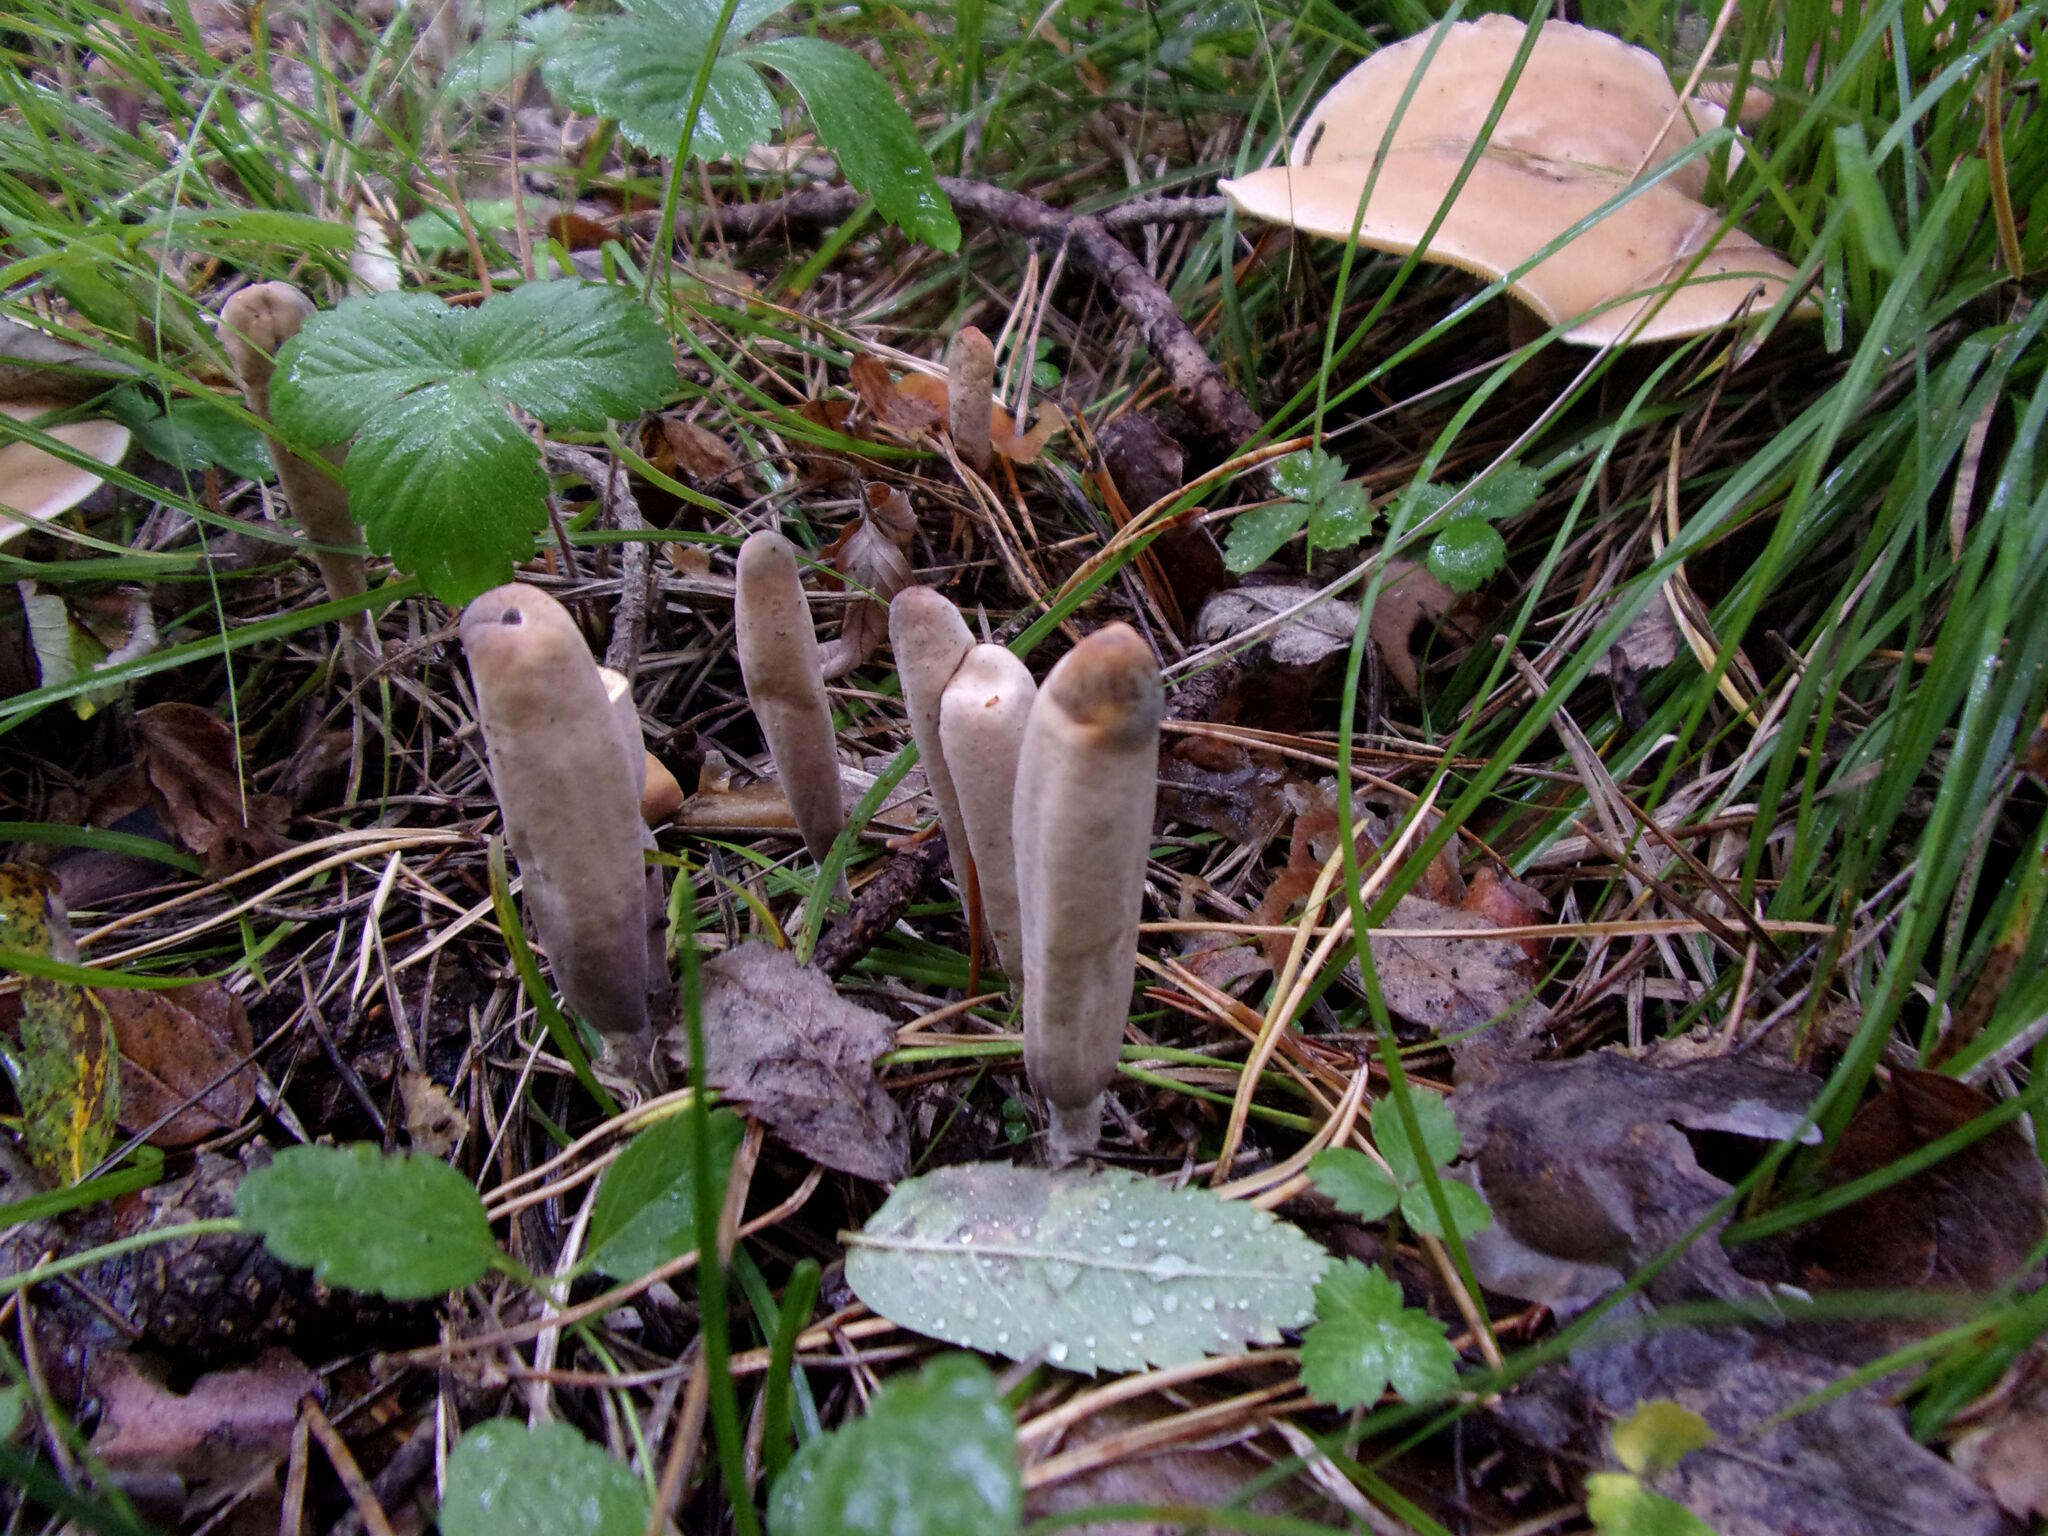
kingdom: Fungi
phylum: Basidiomycota
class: Agaricomycetes
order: Gomphales
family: Clavariadelphaceae
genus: Clavariadelphus
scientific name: Clavariadelphus ligula
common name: Ochre club
